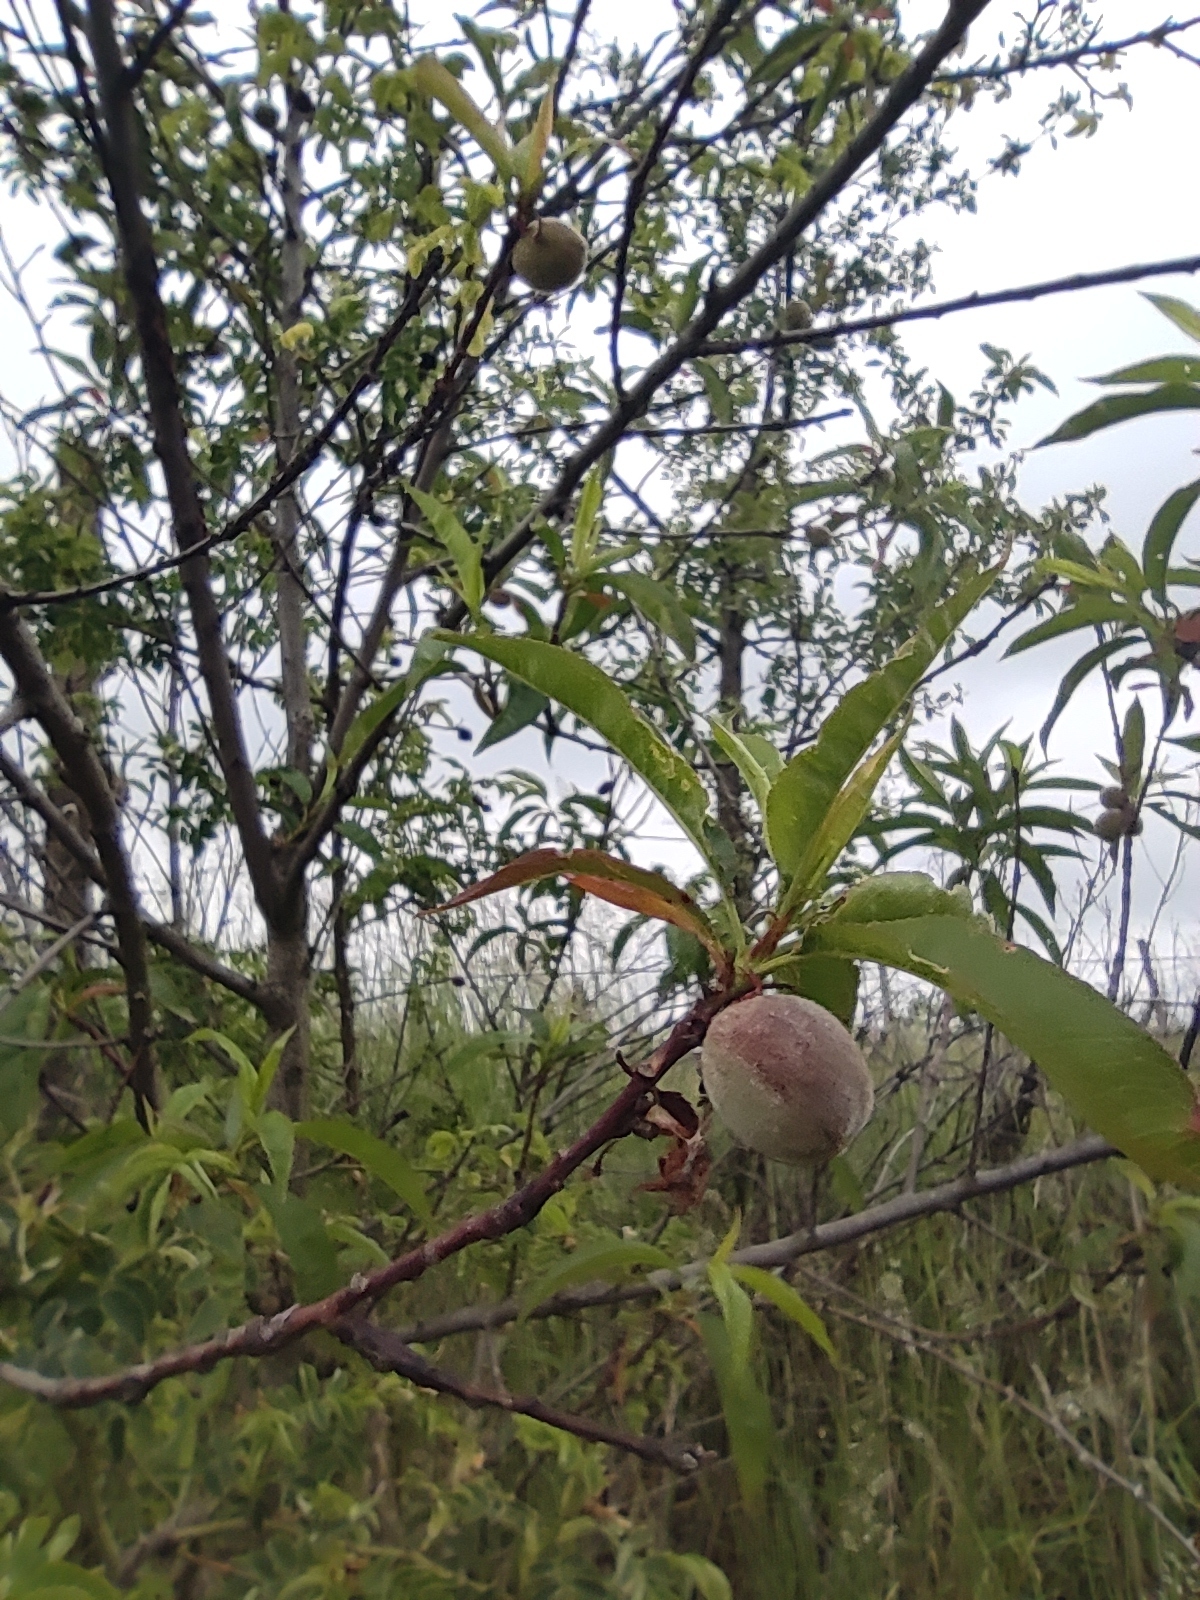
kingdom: Plantae
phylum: Tracheophyta
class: Magnoliopsida
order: Rosales
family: Rosaceae
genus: Prunus
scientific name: Prunus persica
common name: Peach
